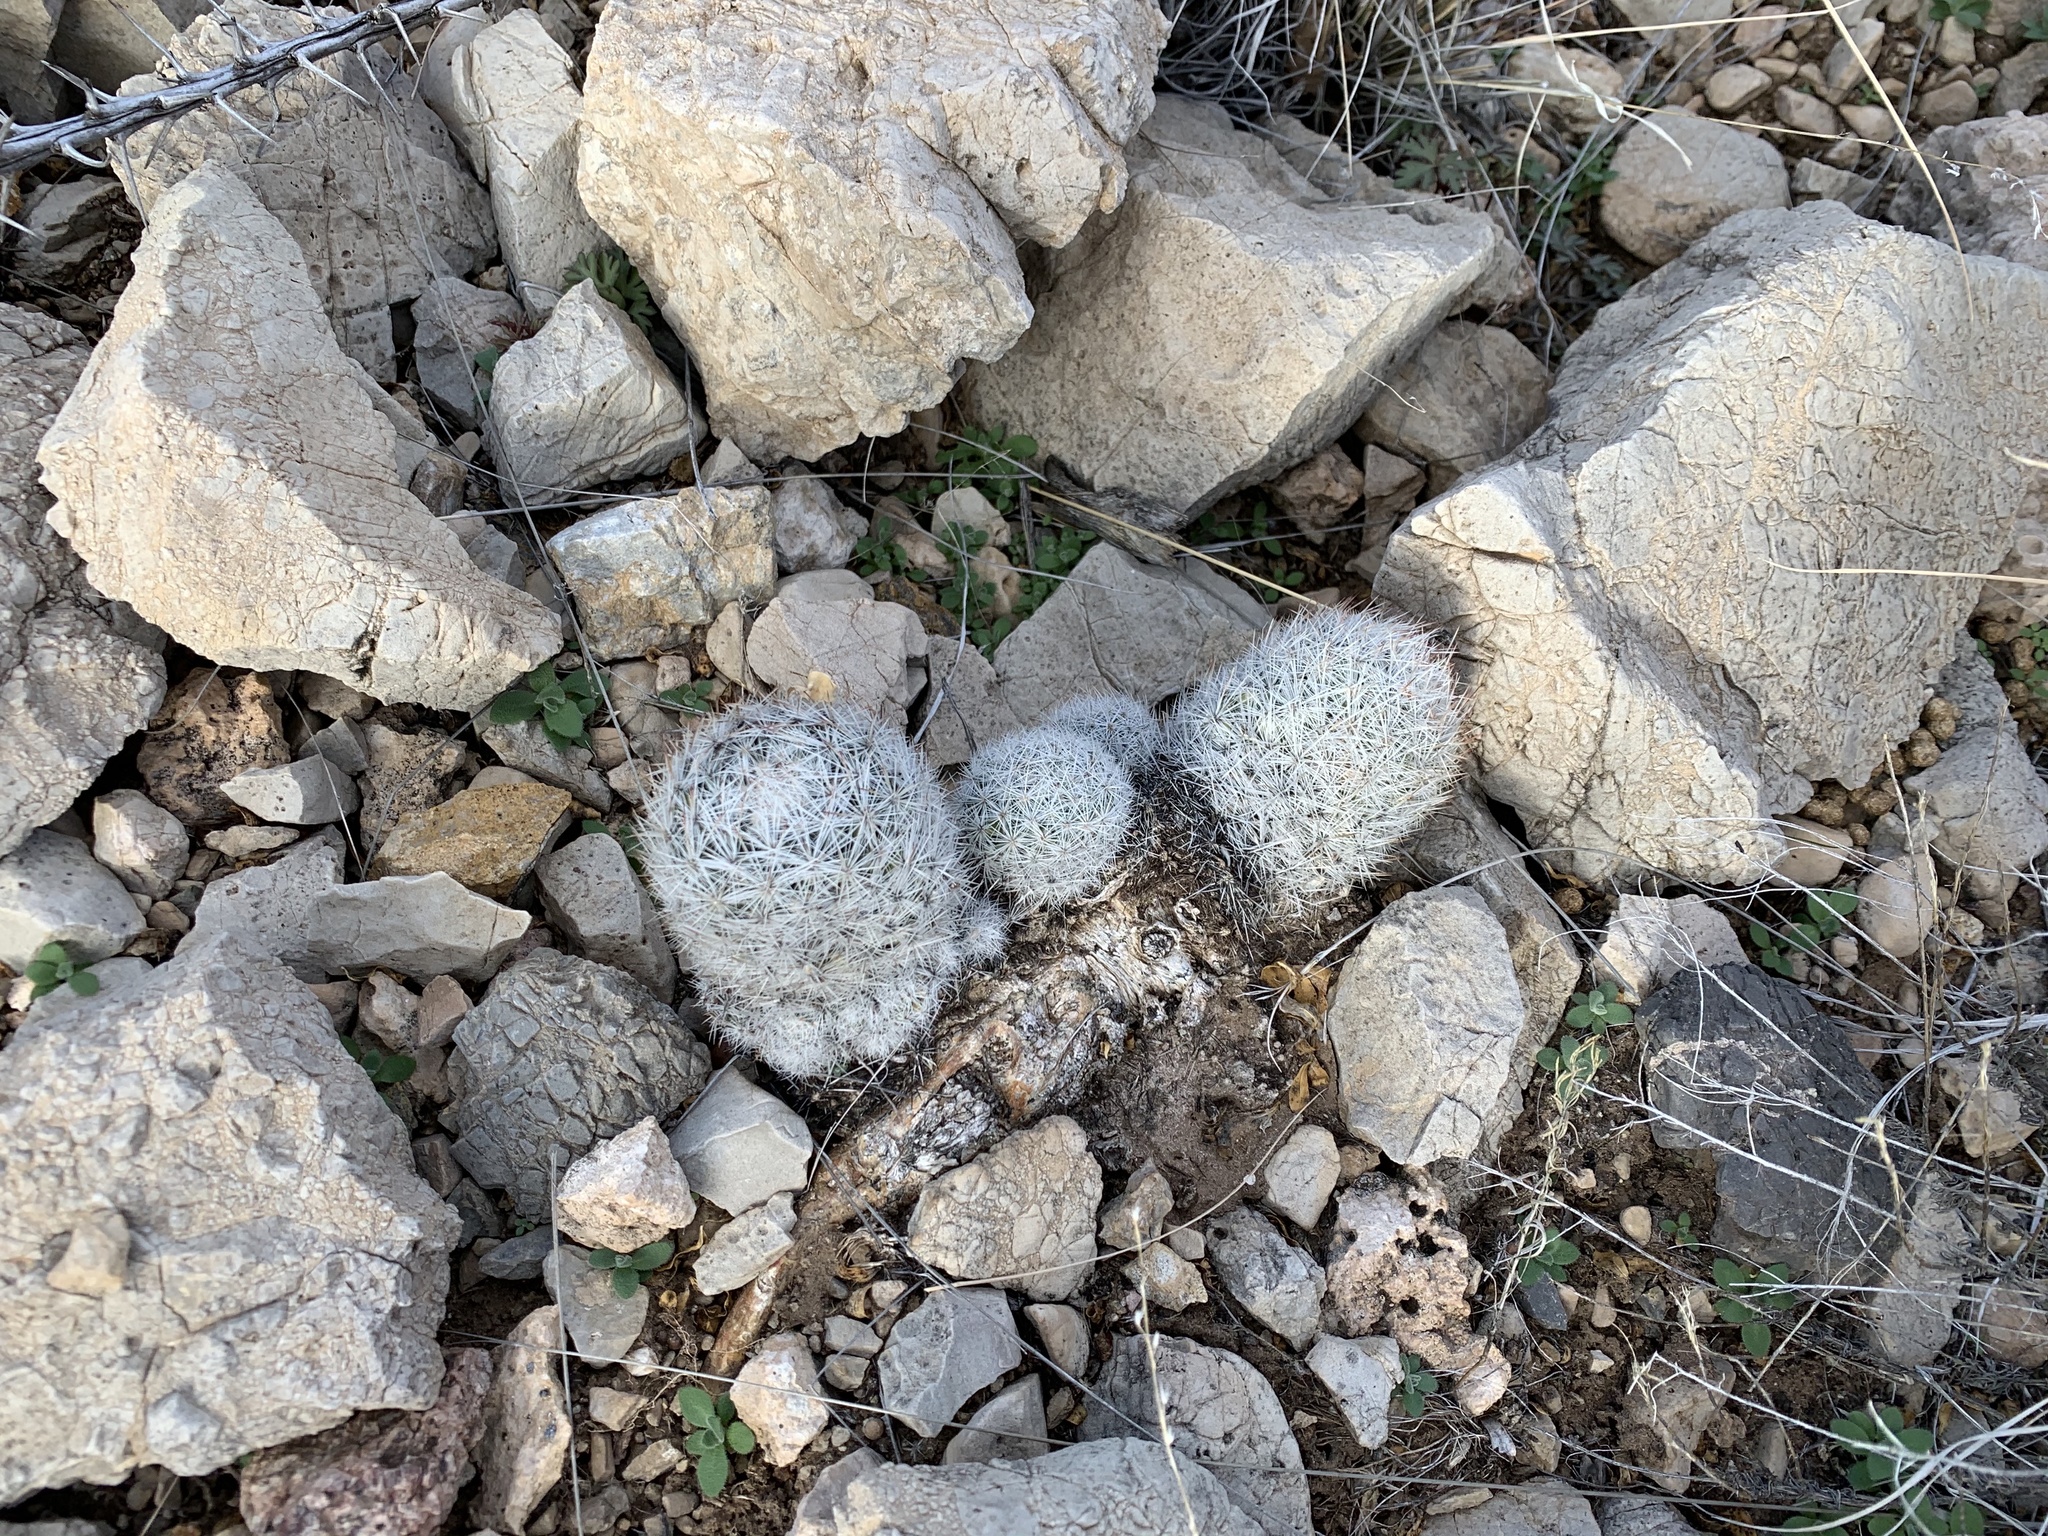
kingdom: Plantae
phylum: Tracheophyta
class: Magnoliopsida
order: Caryophyllales
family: Cactaceae
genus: Pelecyphora
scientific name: Pelecyphora sneedii
